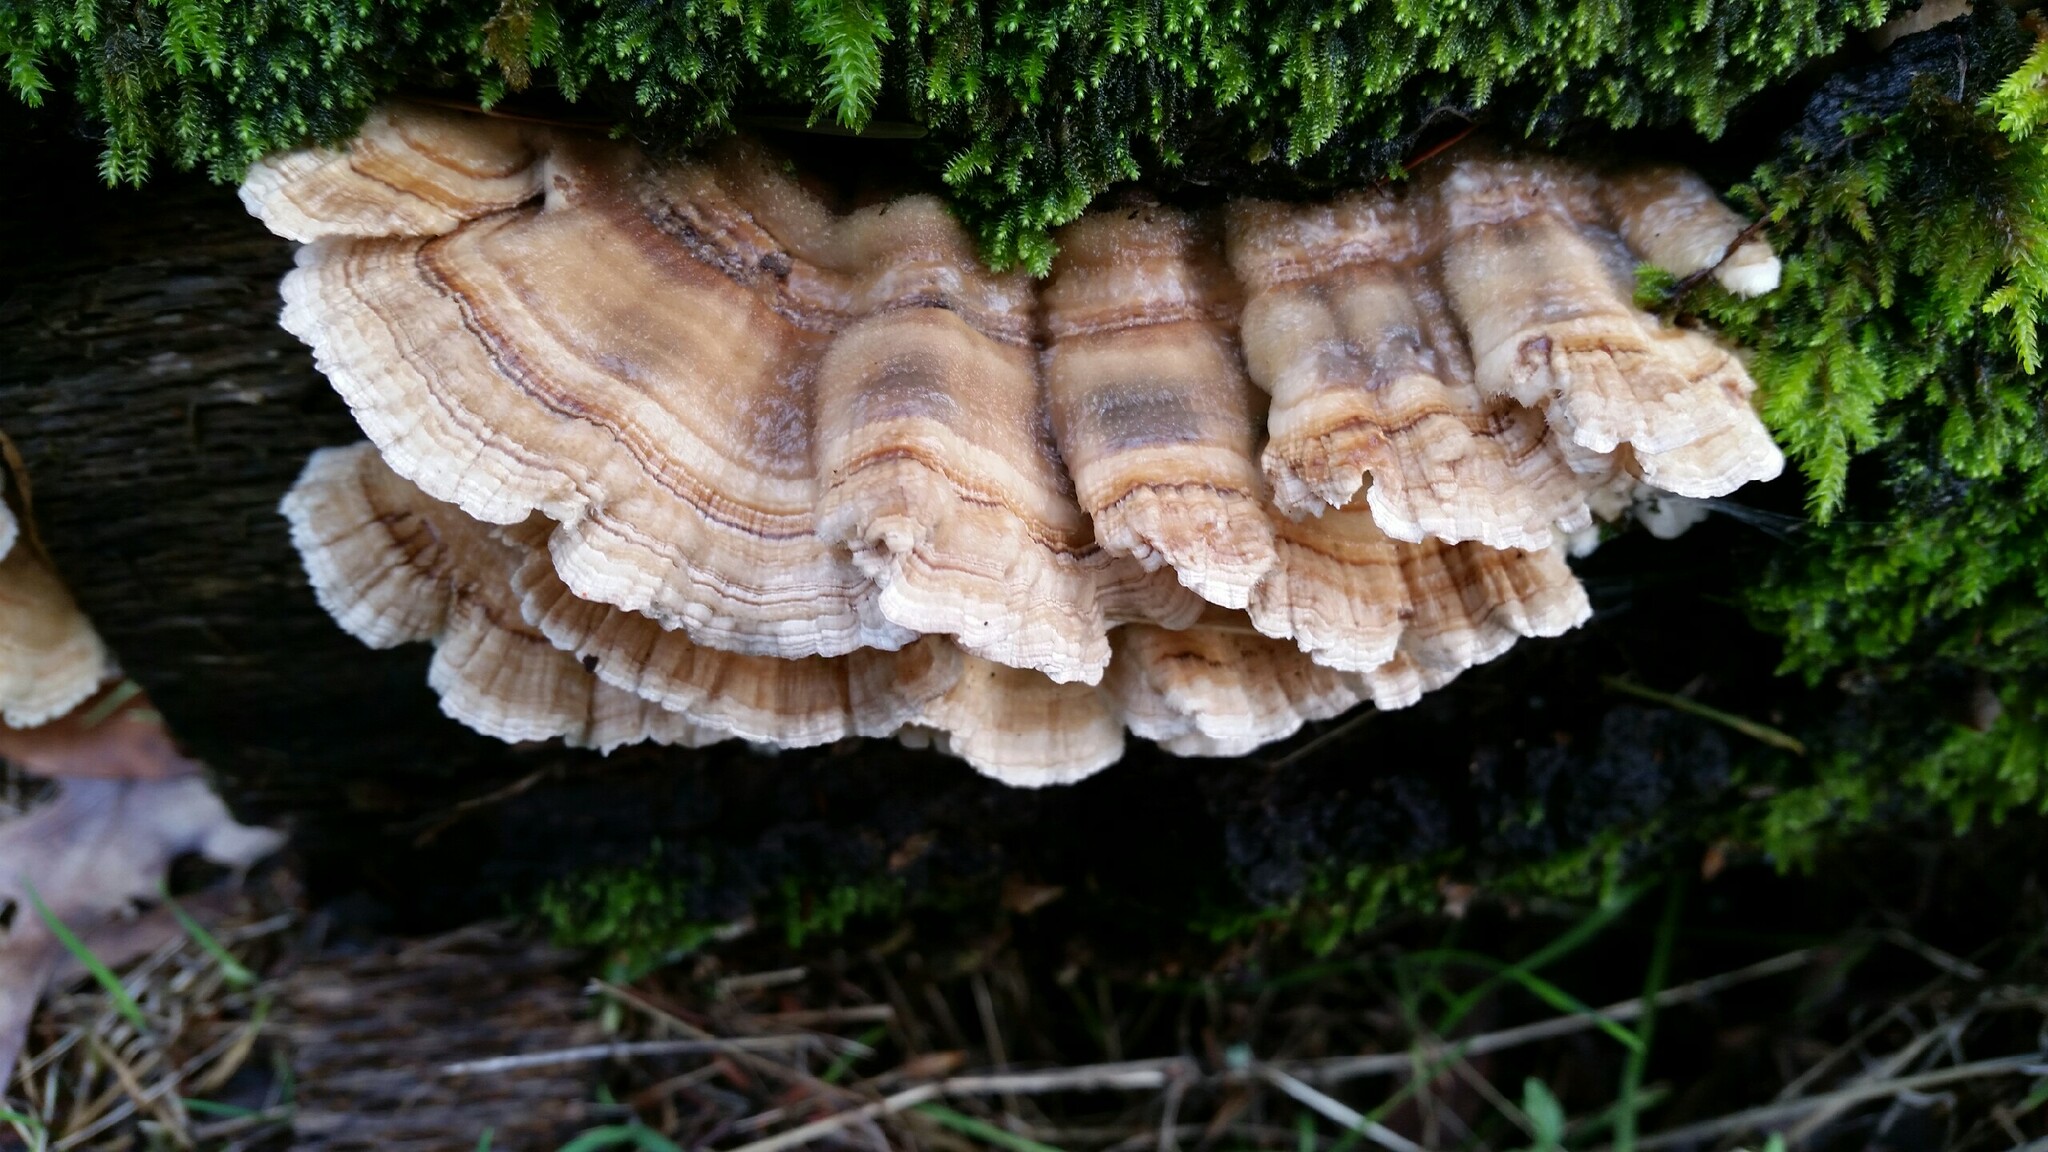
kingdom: Fungi
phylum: Basidiomycota
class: Agaricomycetes
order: Polyporales
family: Polyporaceae
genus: Trametes
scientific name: Trametes versicolor
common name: Turkeytail
